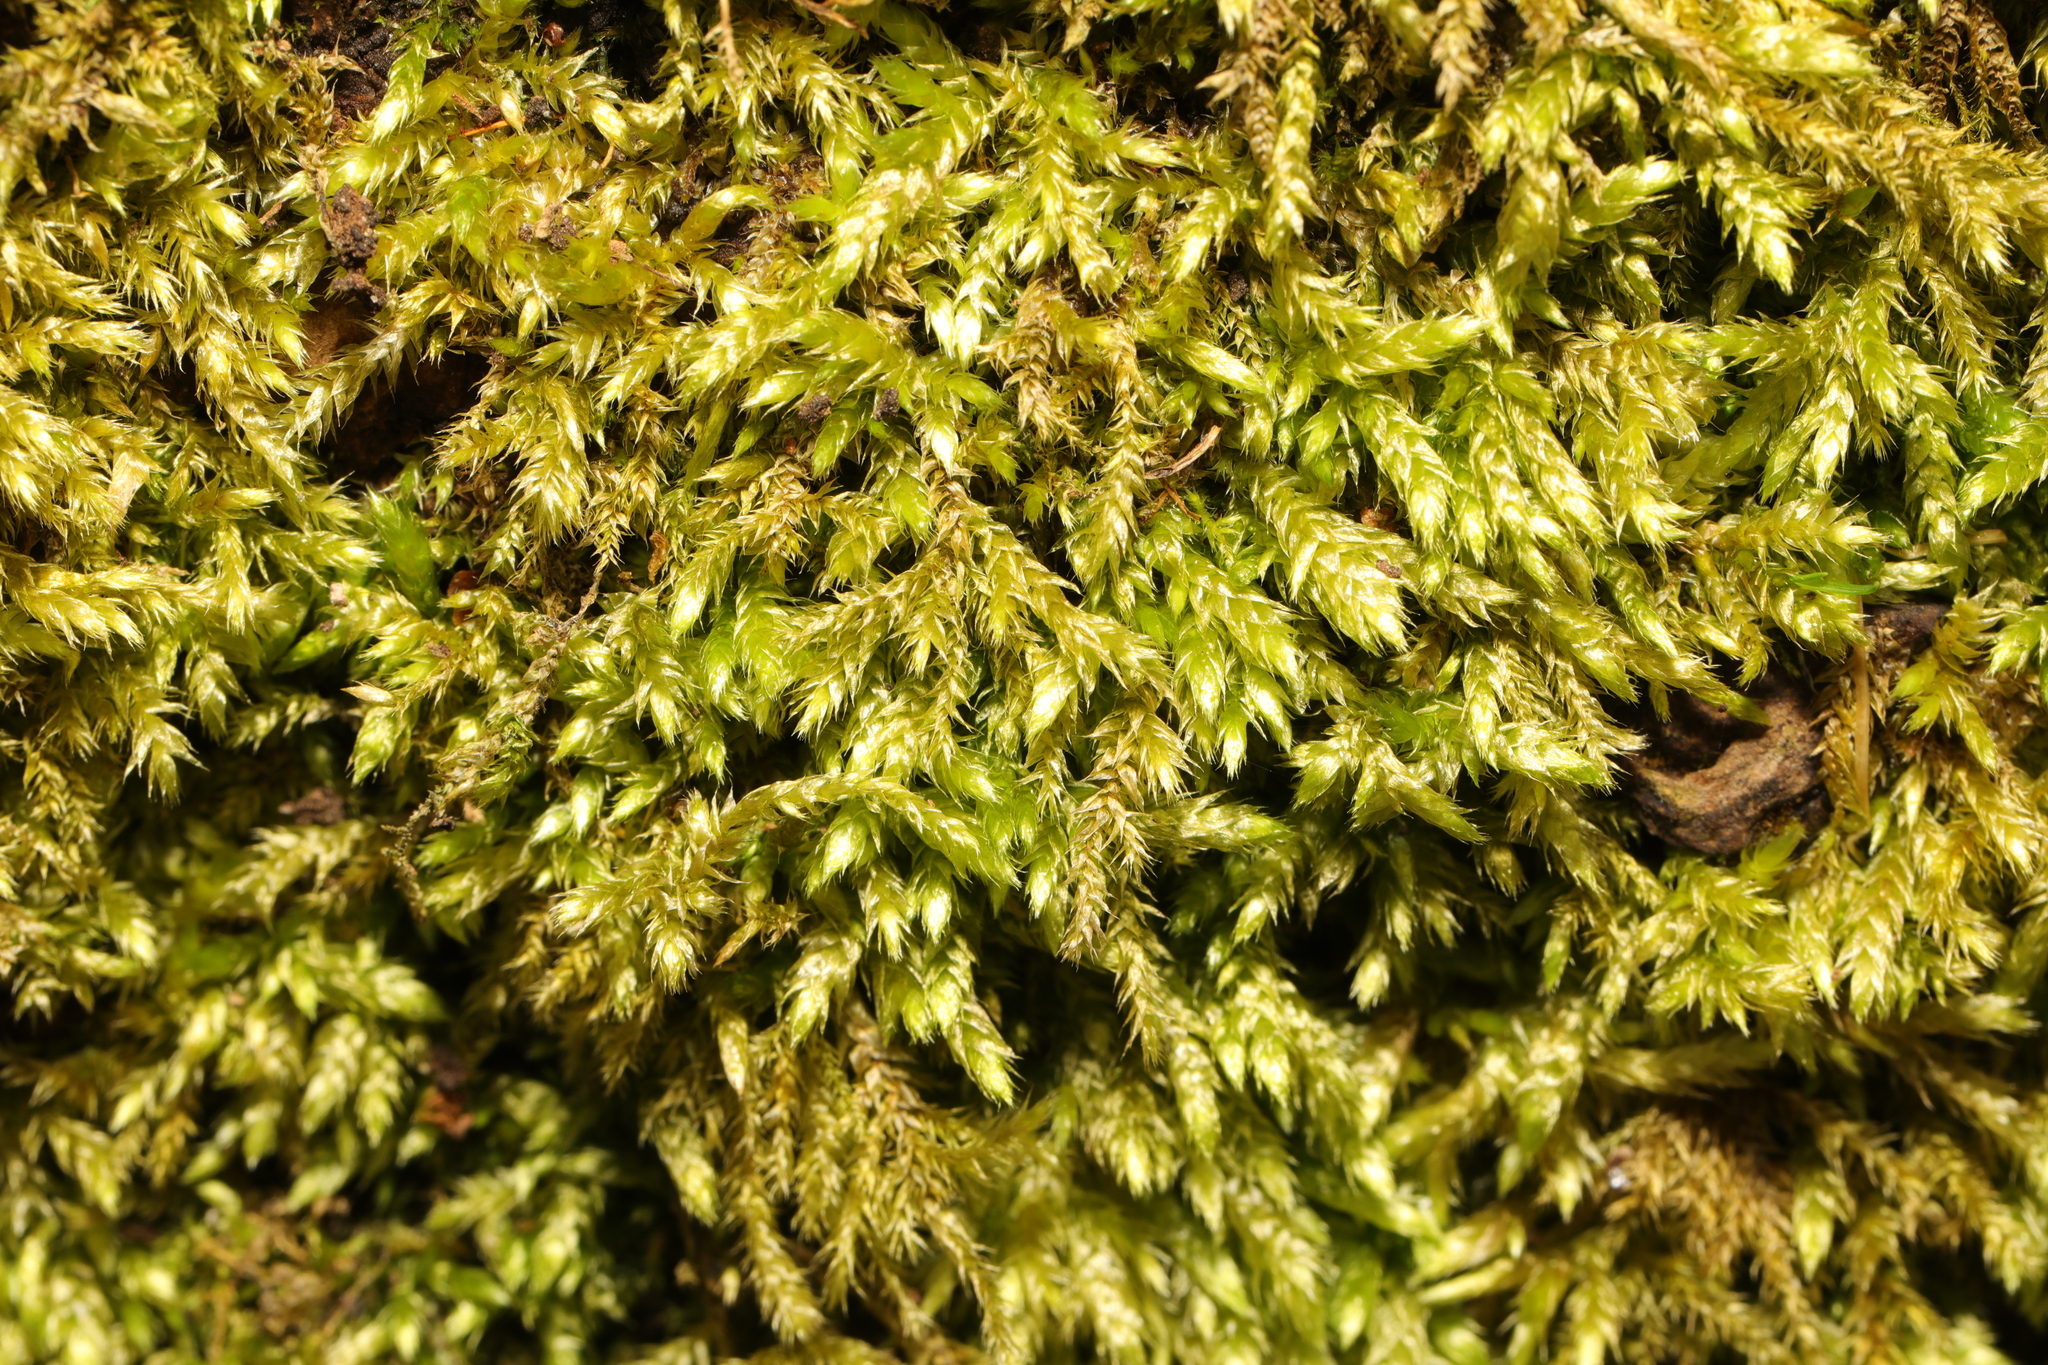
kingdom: Plantae
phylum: Bryophyta
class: Bryopsida
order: Hypnales
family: Brachytheciaceae
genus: Brachythecium
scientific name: Brachythecium rutabulum
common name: Rough-stalked feather-moss
